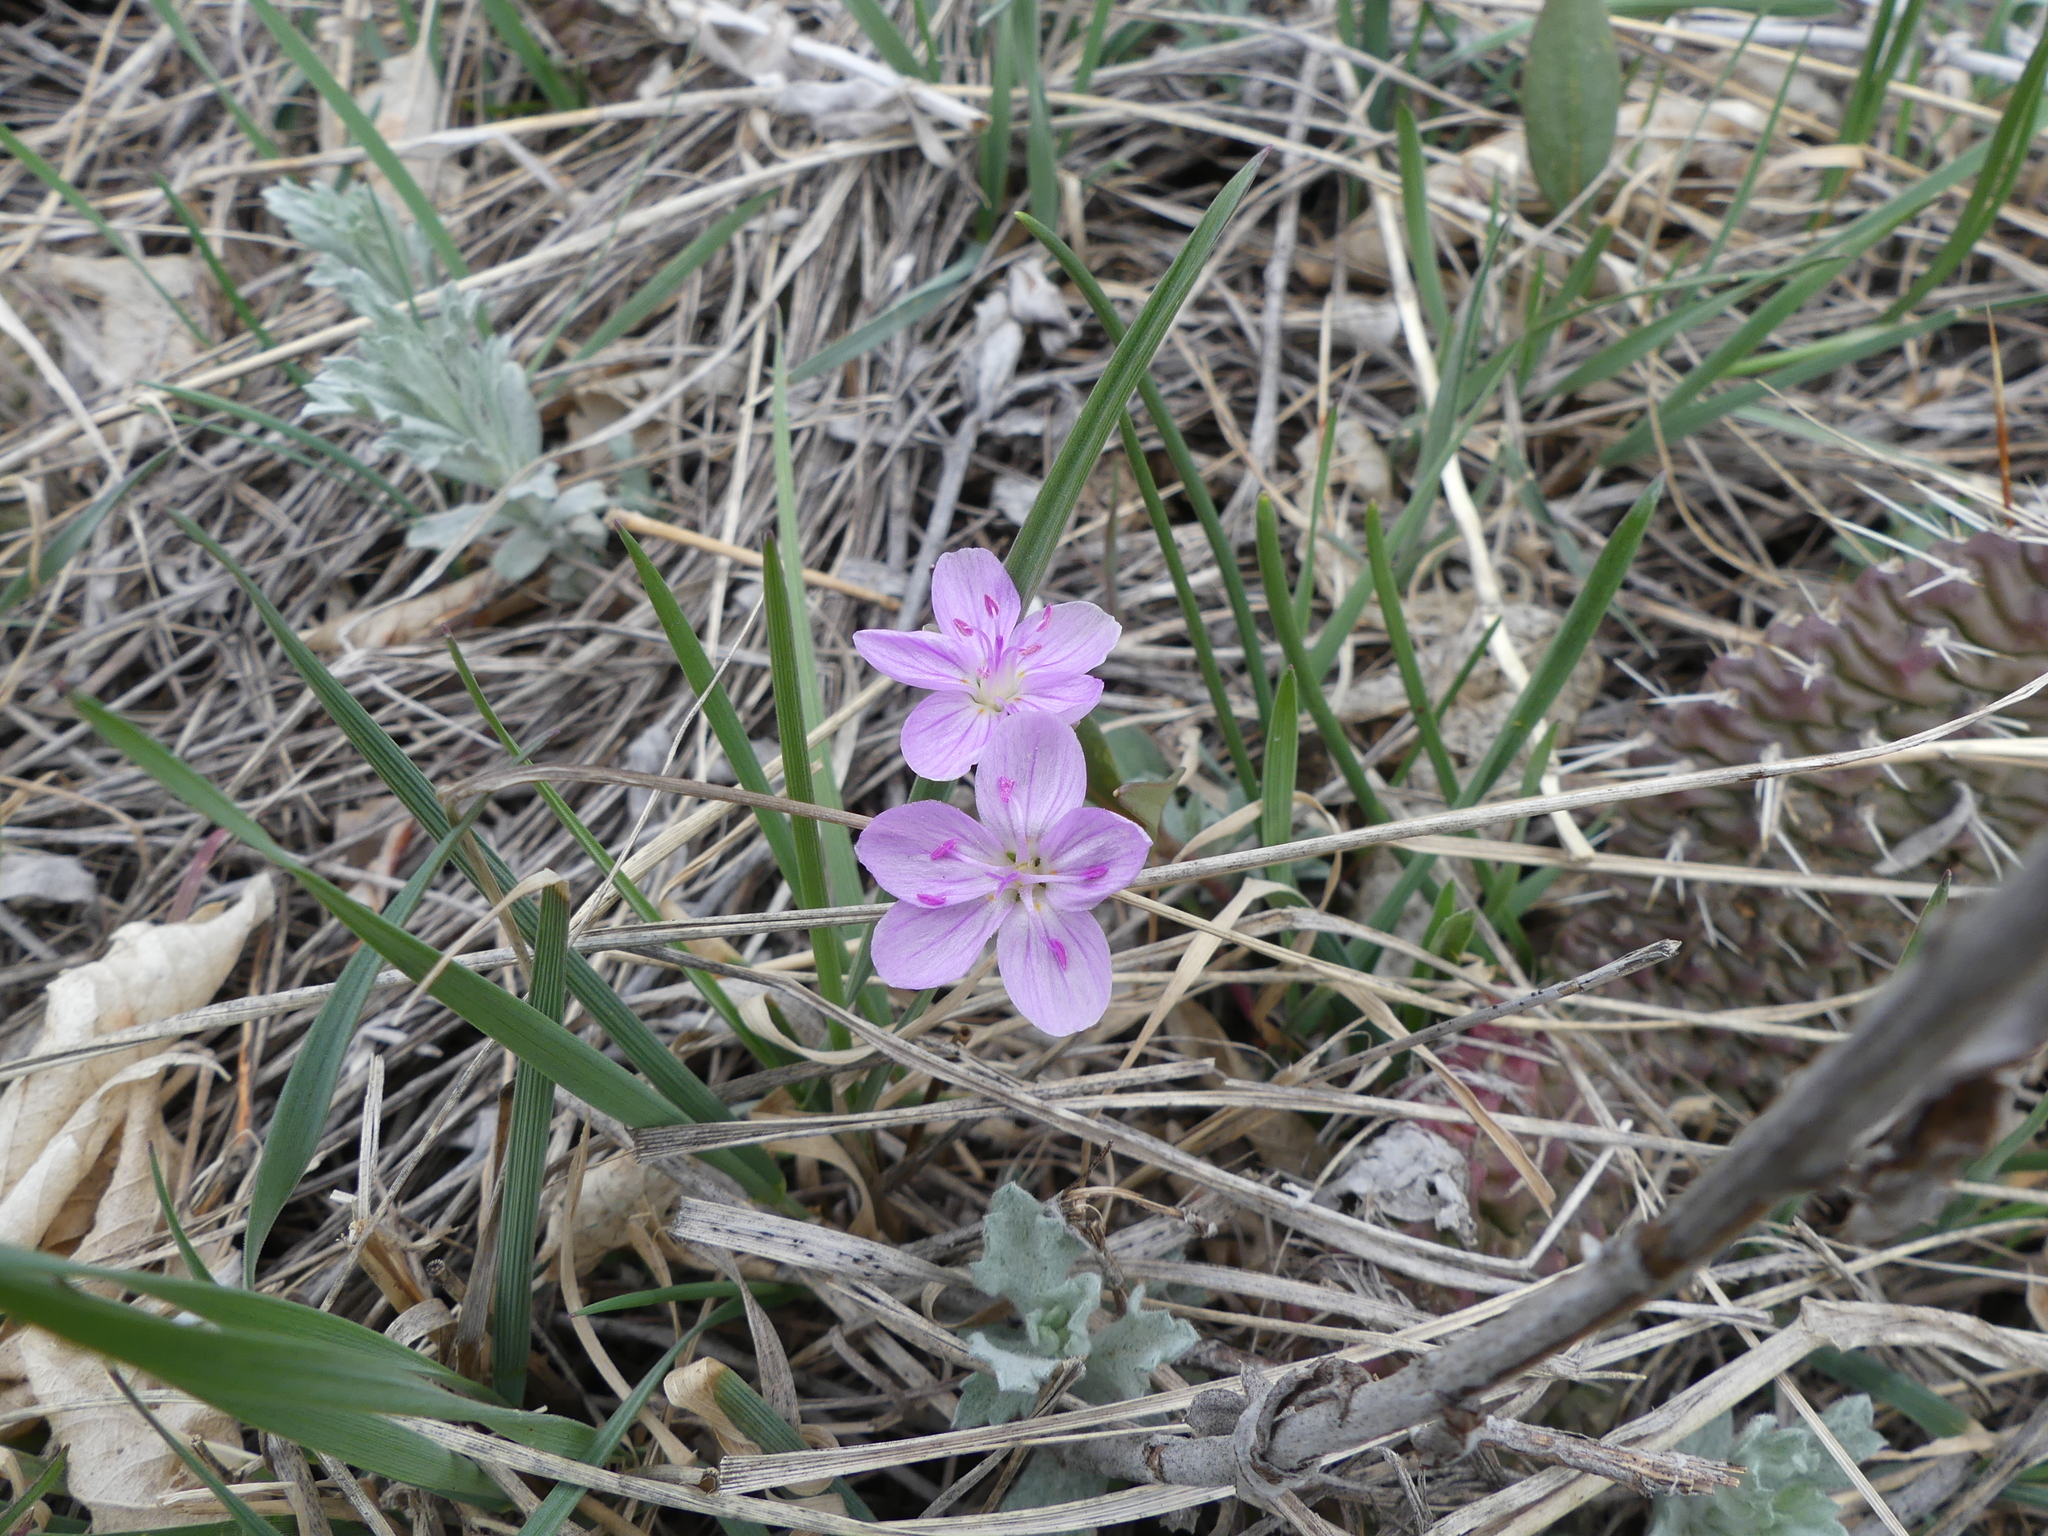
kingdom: Plantae
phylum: Tracheophyta
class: Magnoliopsida
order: Caryophyllales
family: Montiaceae
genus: Claytonia
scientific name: Claytonia rosea
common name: Rocky mountain spring-beauty
